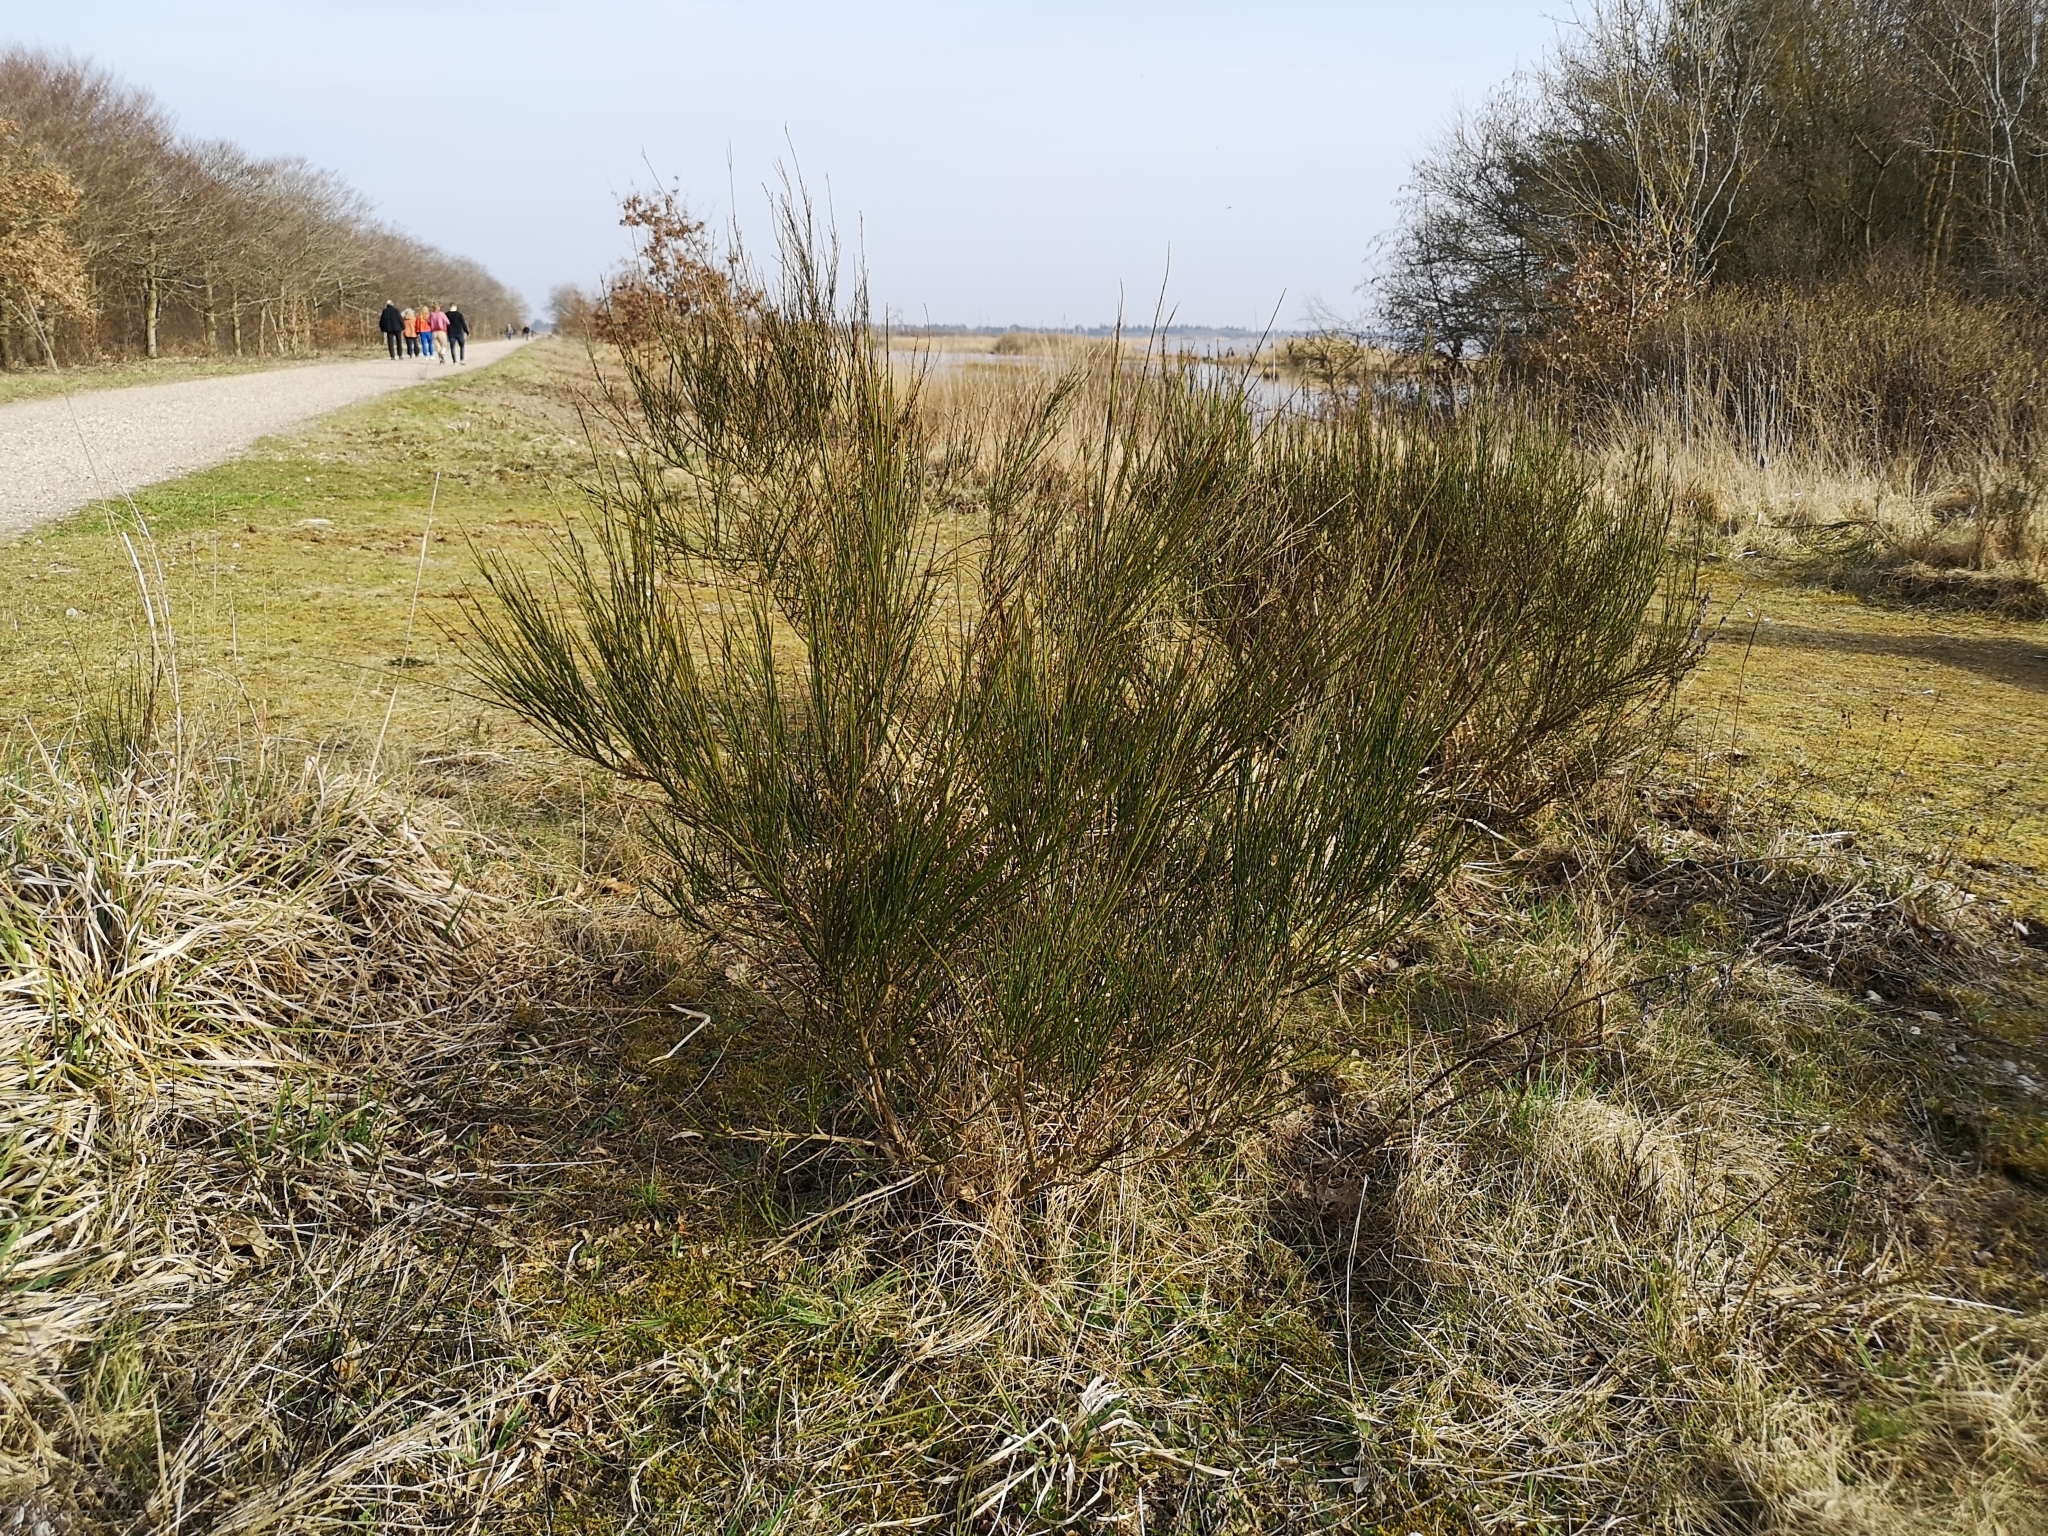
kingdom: Plantae
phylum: Tracheophyta
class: Magnoliopsida
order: Fabales
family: Fabaceae
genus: Cytisus
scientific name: Cytisus scoparius
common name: Scotch broom
